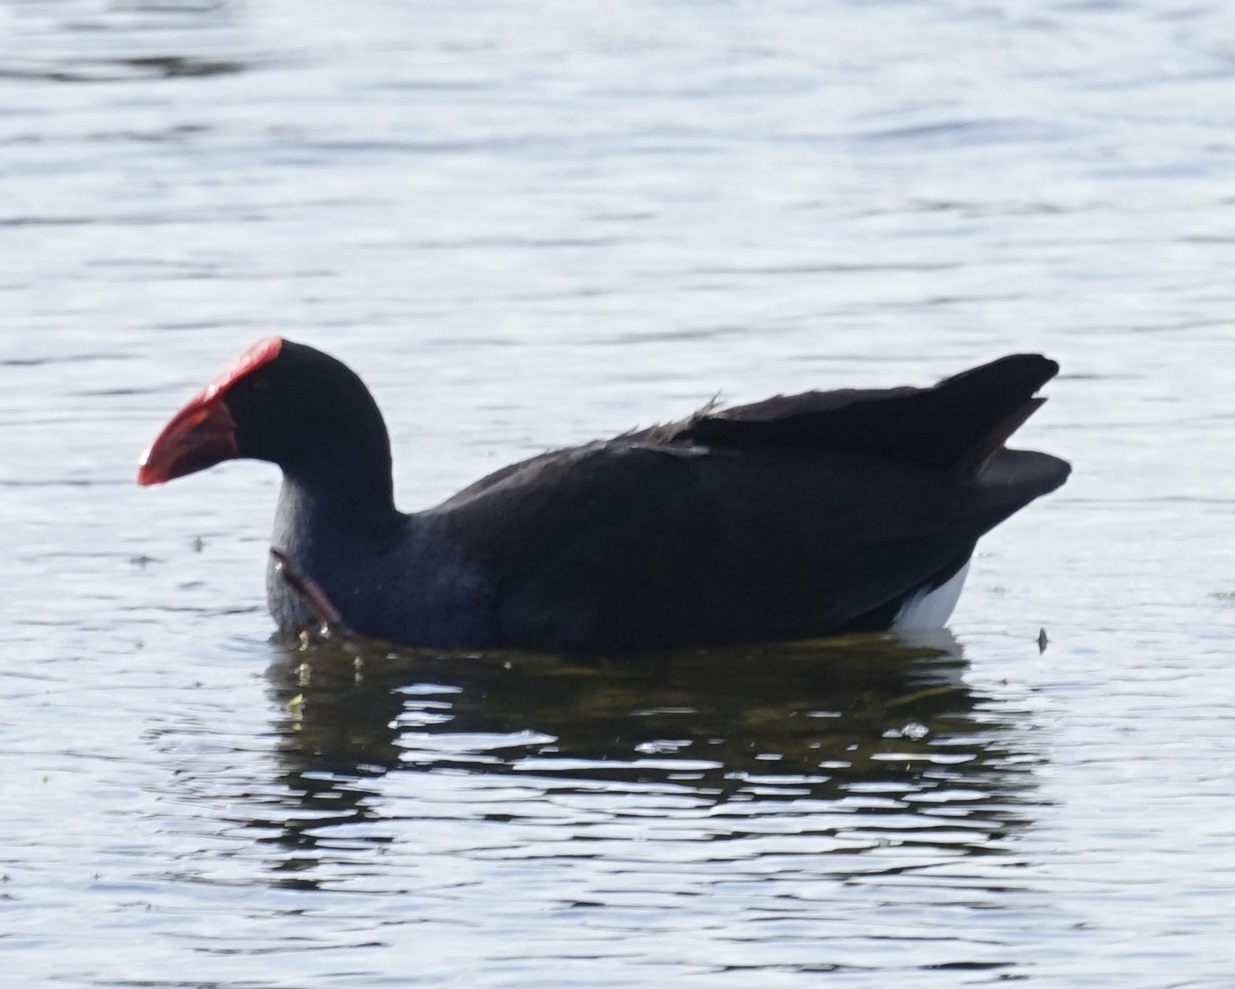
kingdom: Animalia
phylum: Chordata
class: Aves
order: Gruiformes
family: Rallidae
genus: Porphyrio
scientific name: Porphyrio melanotus
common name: Australasian swamphen
